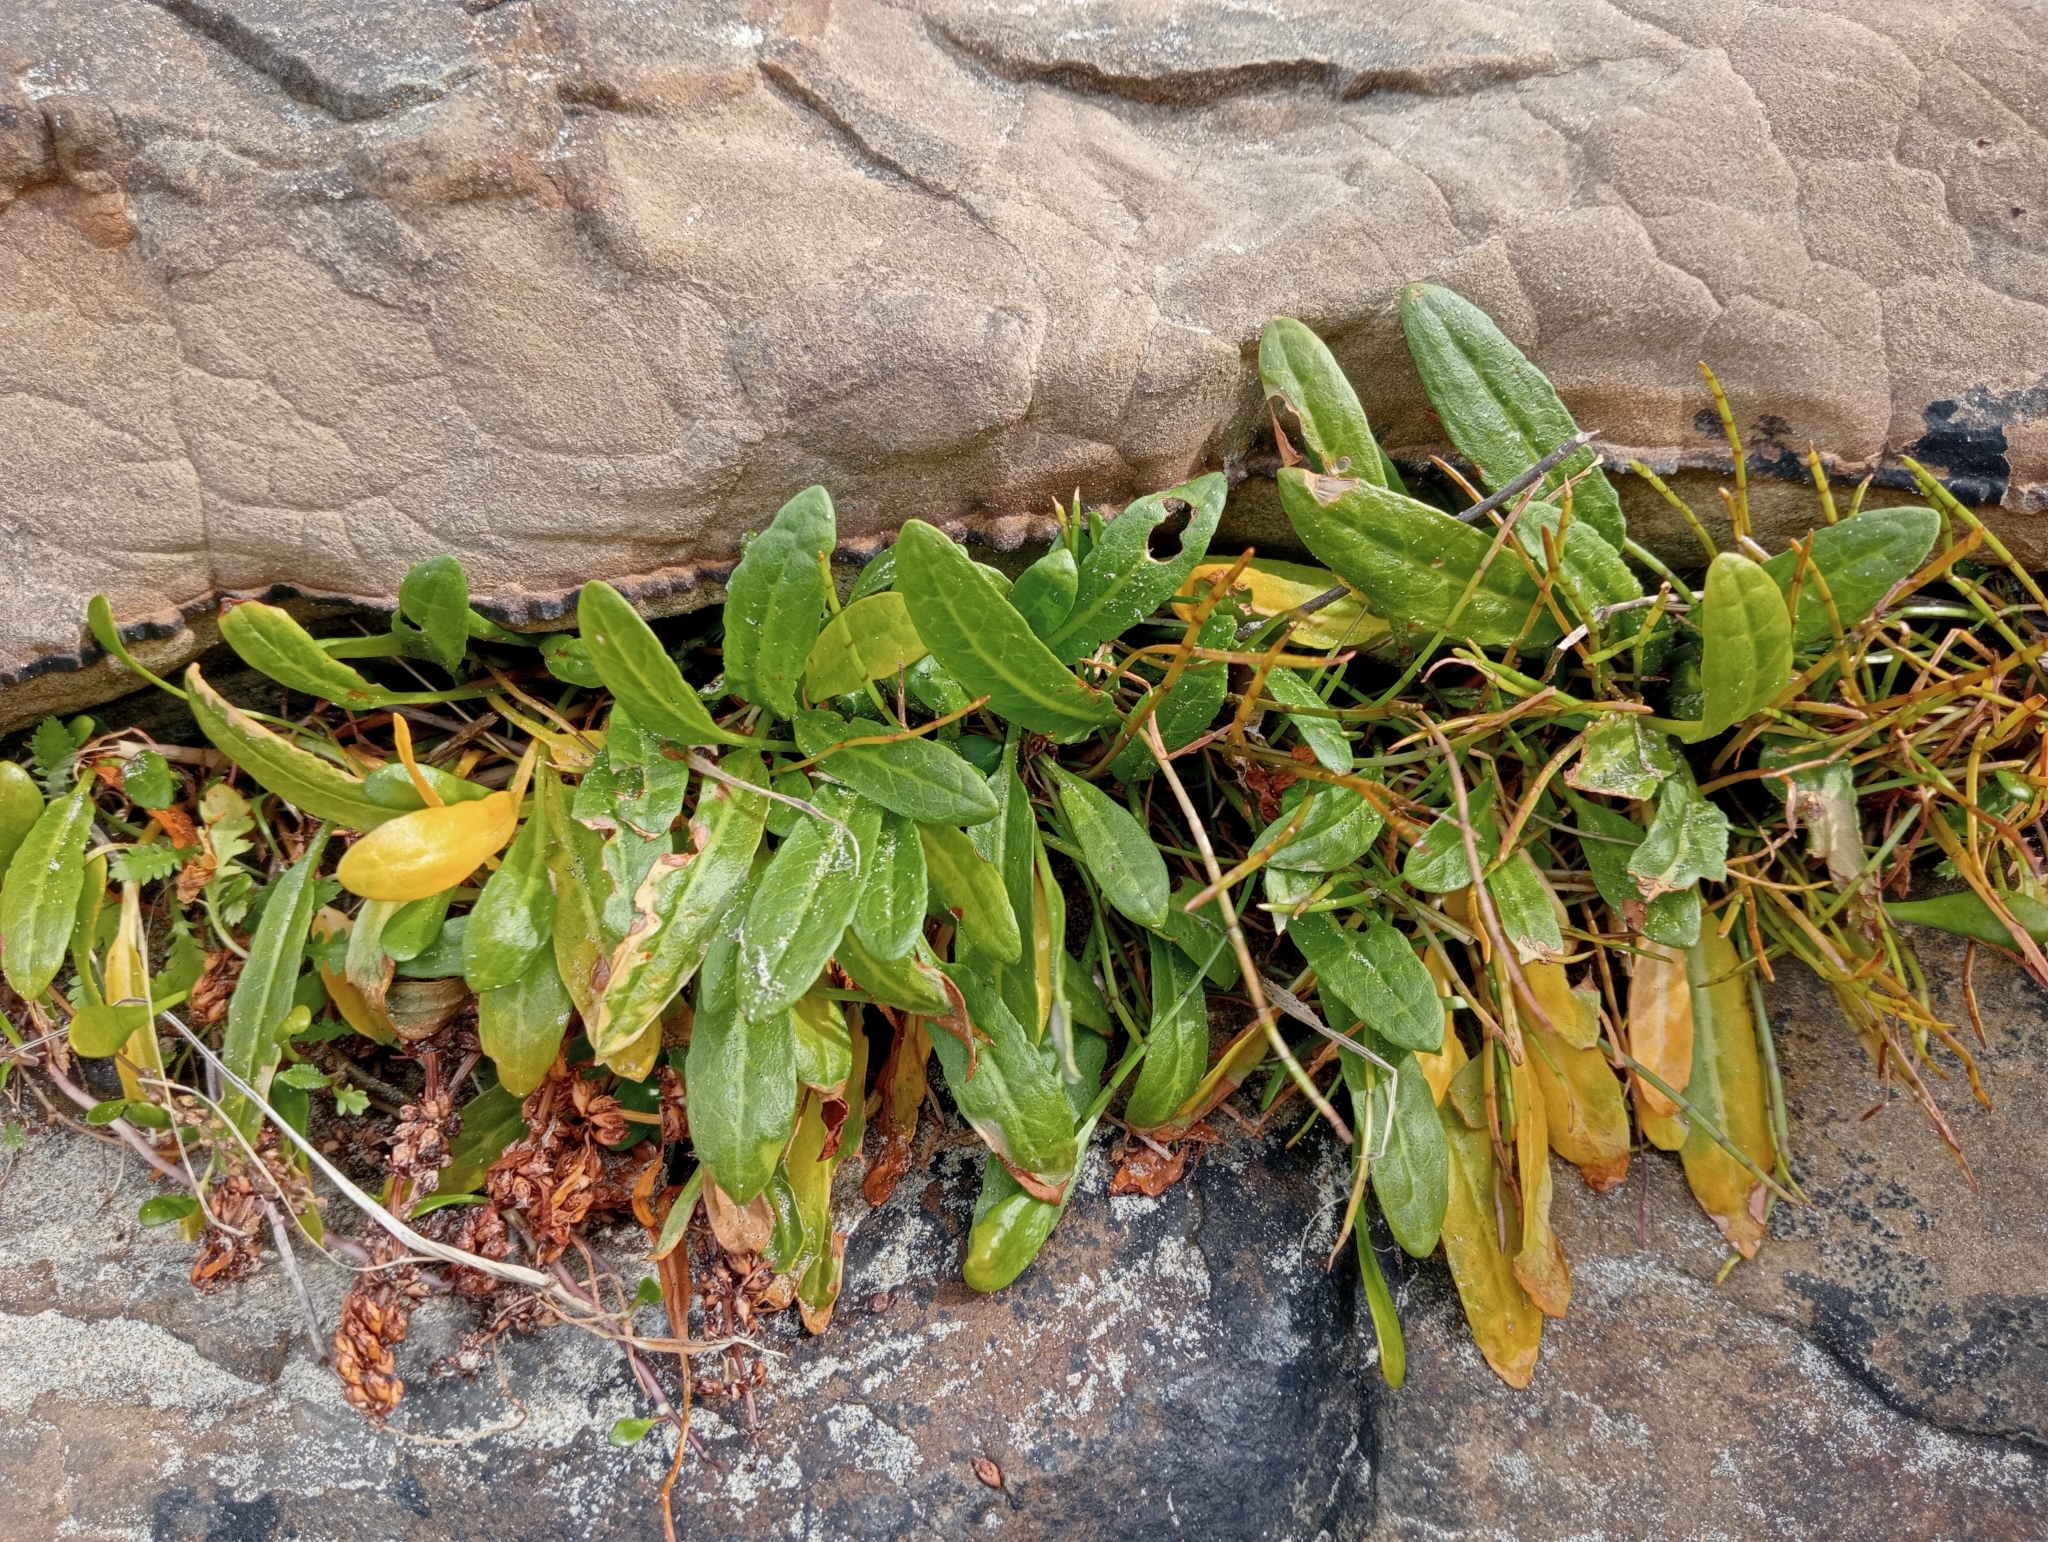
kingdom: Plantae
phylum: Tracheophyta
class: Magnoliopsida
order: Caryophyllales
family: Polygonaceae
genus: Rumex
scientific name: Rumex neglectus
